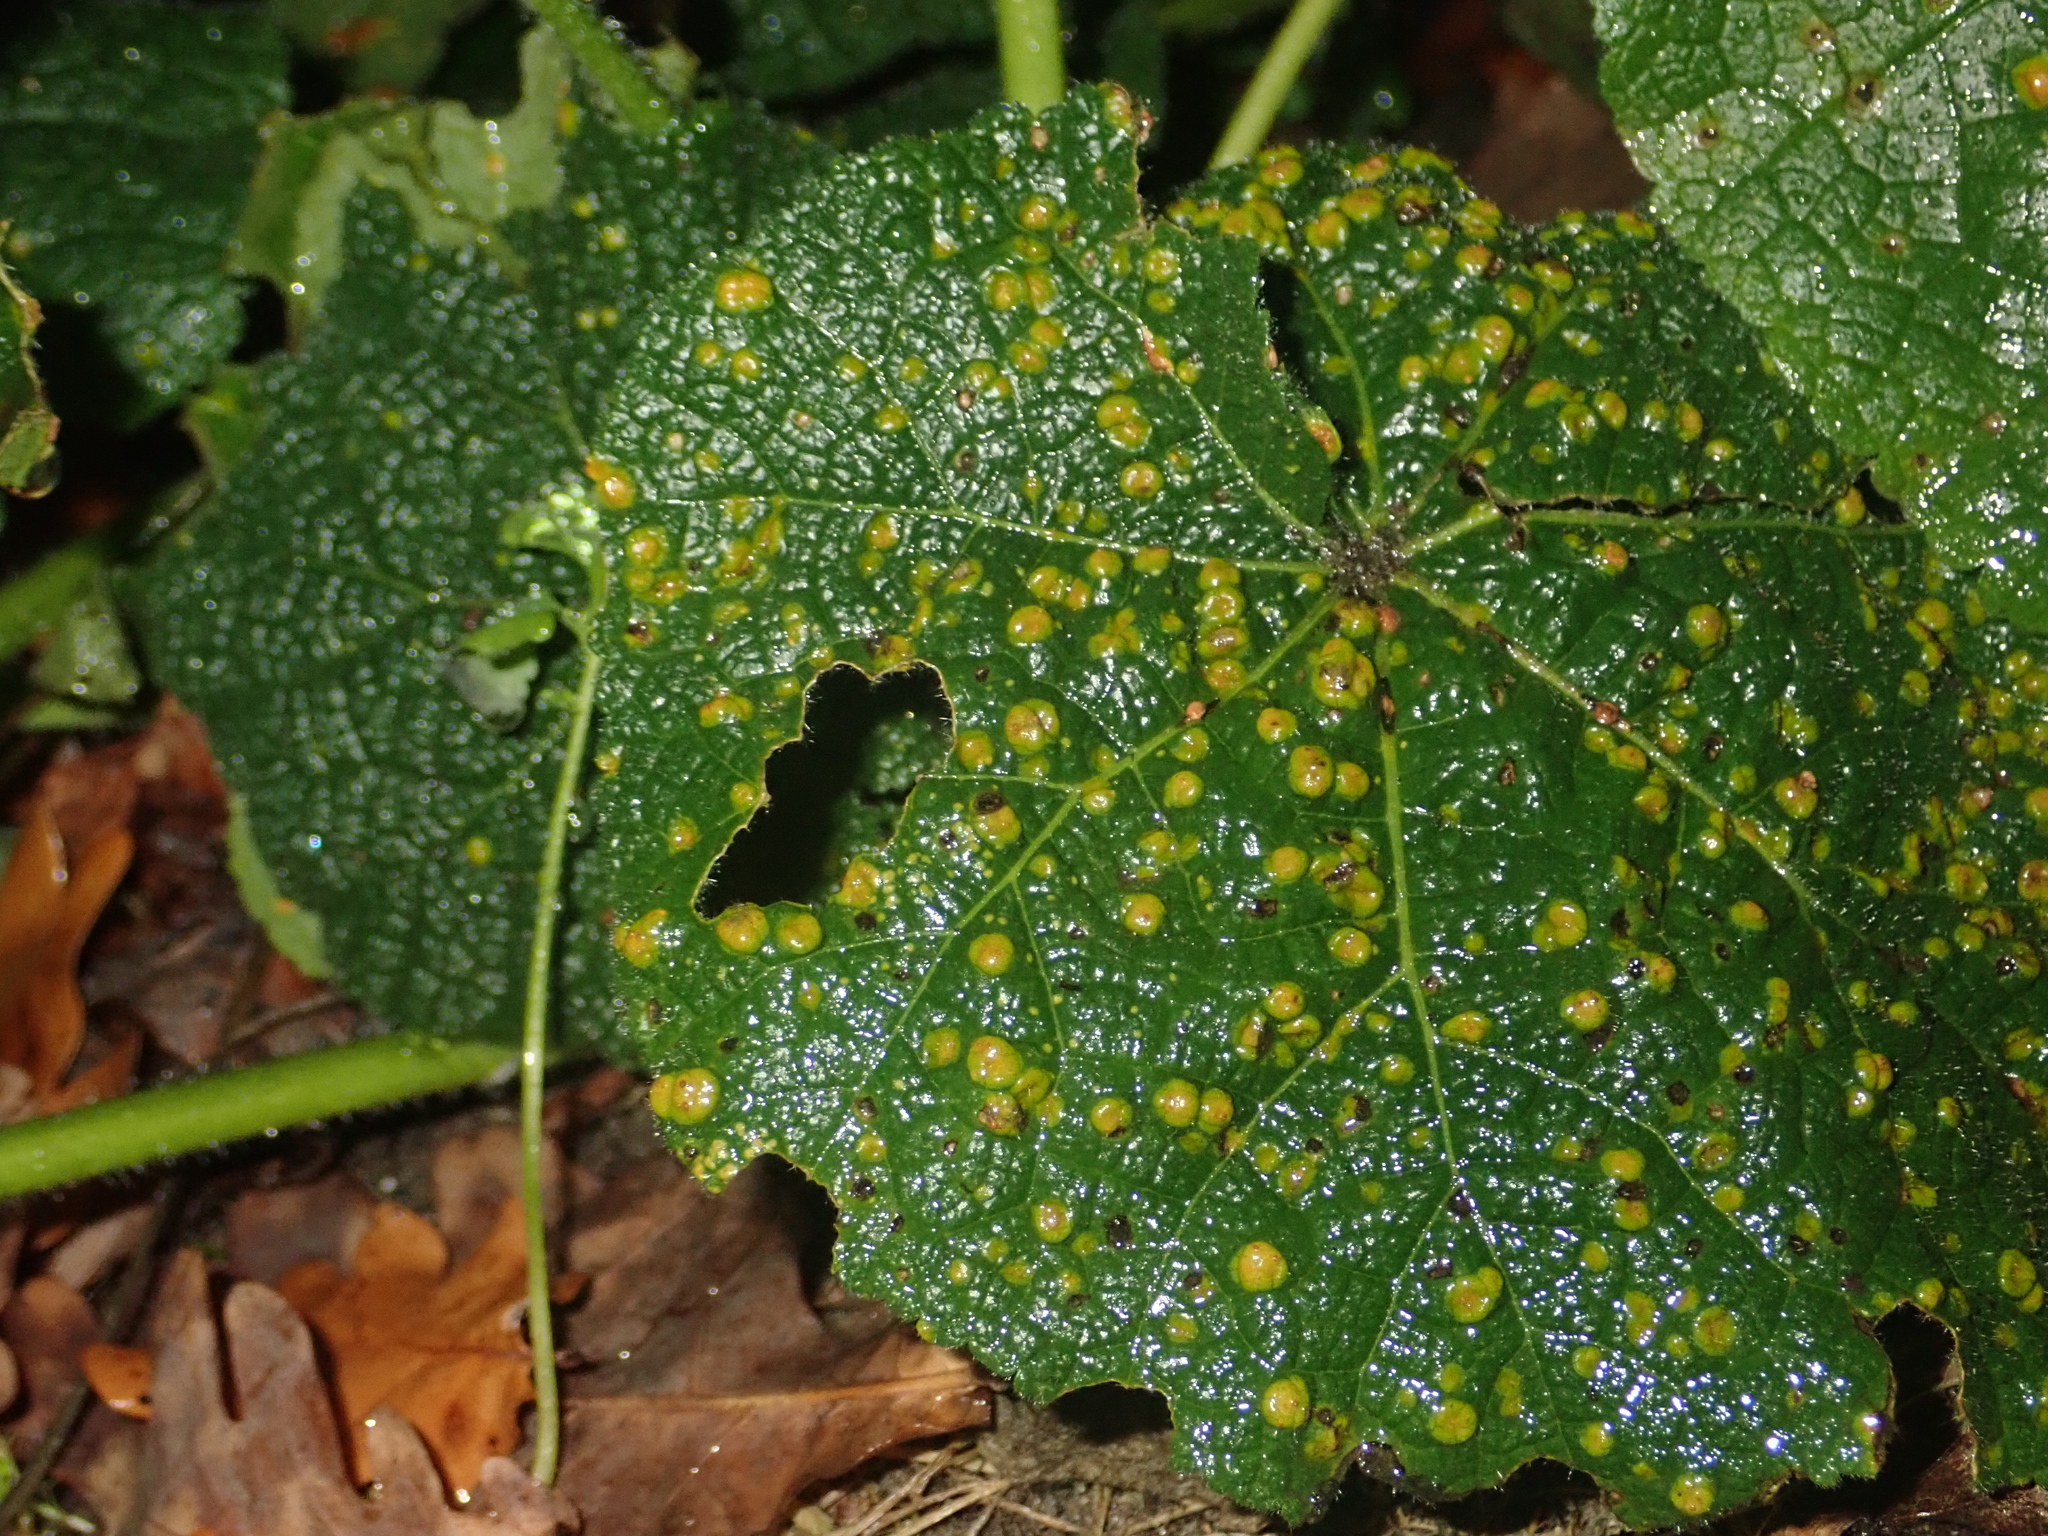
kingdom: Fungi
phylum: Basidiomycota
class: Pucciniomycetes
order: Pucciniales
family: Pucciniaceae
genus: Puccinia
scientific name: Puccinia malvacearum
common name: Hollyhock rust
